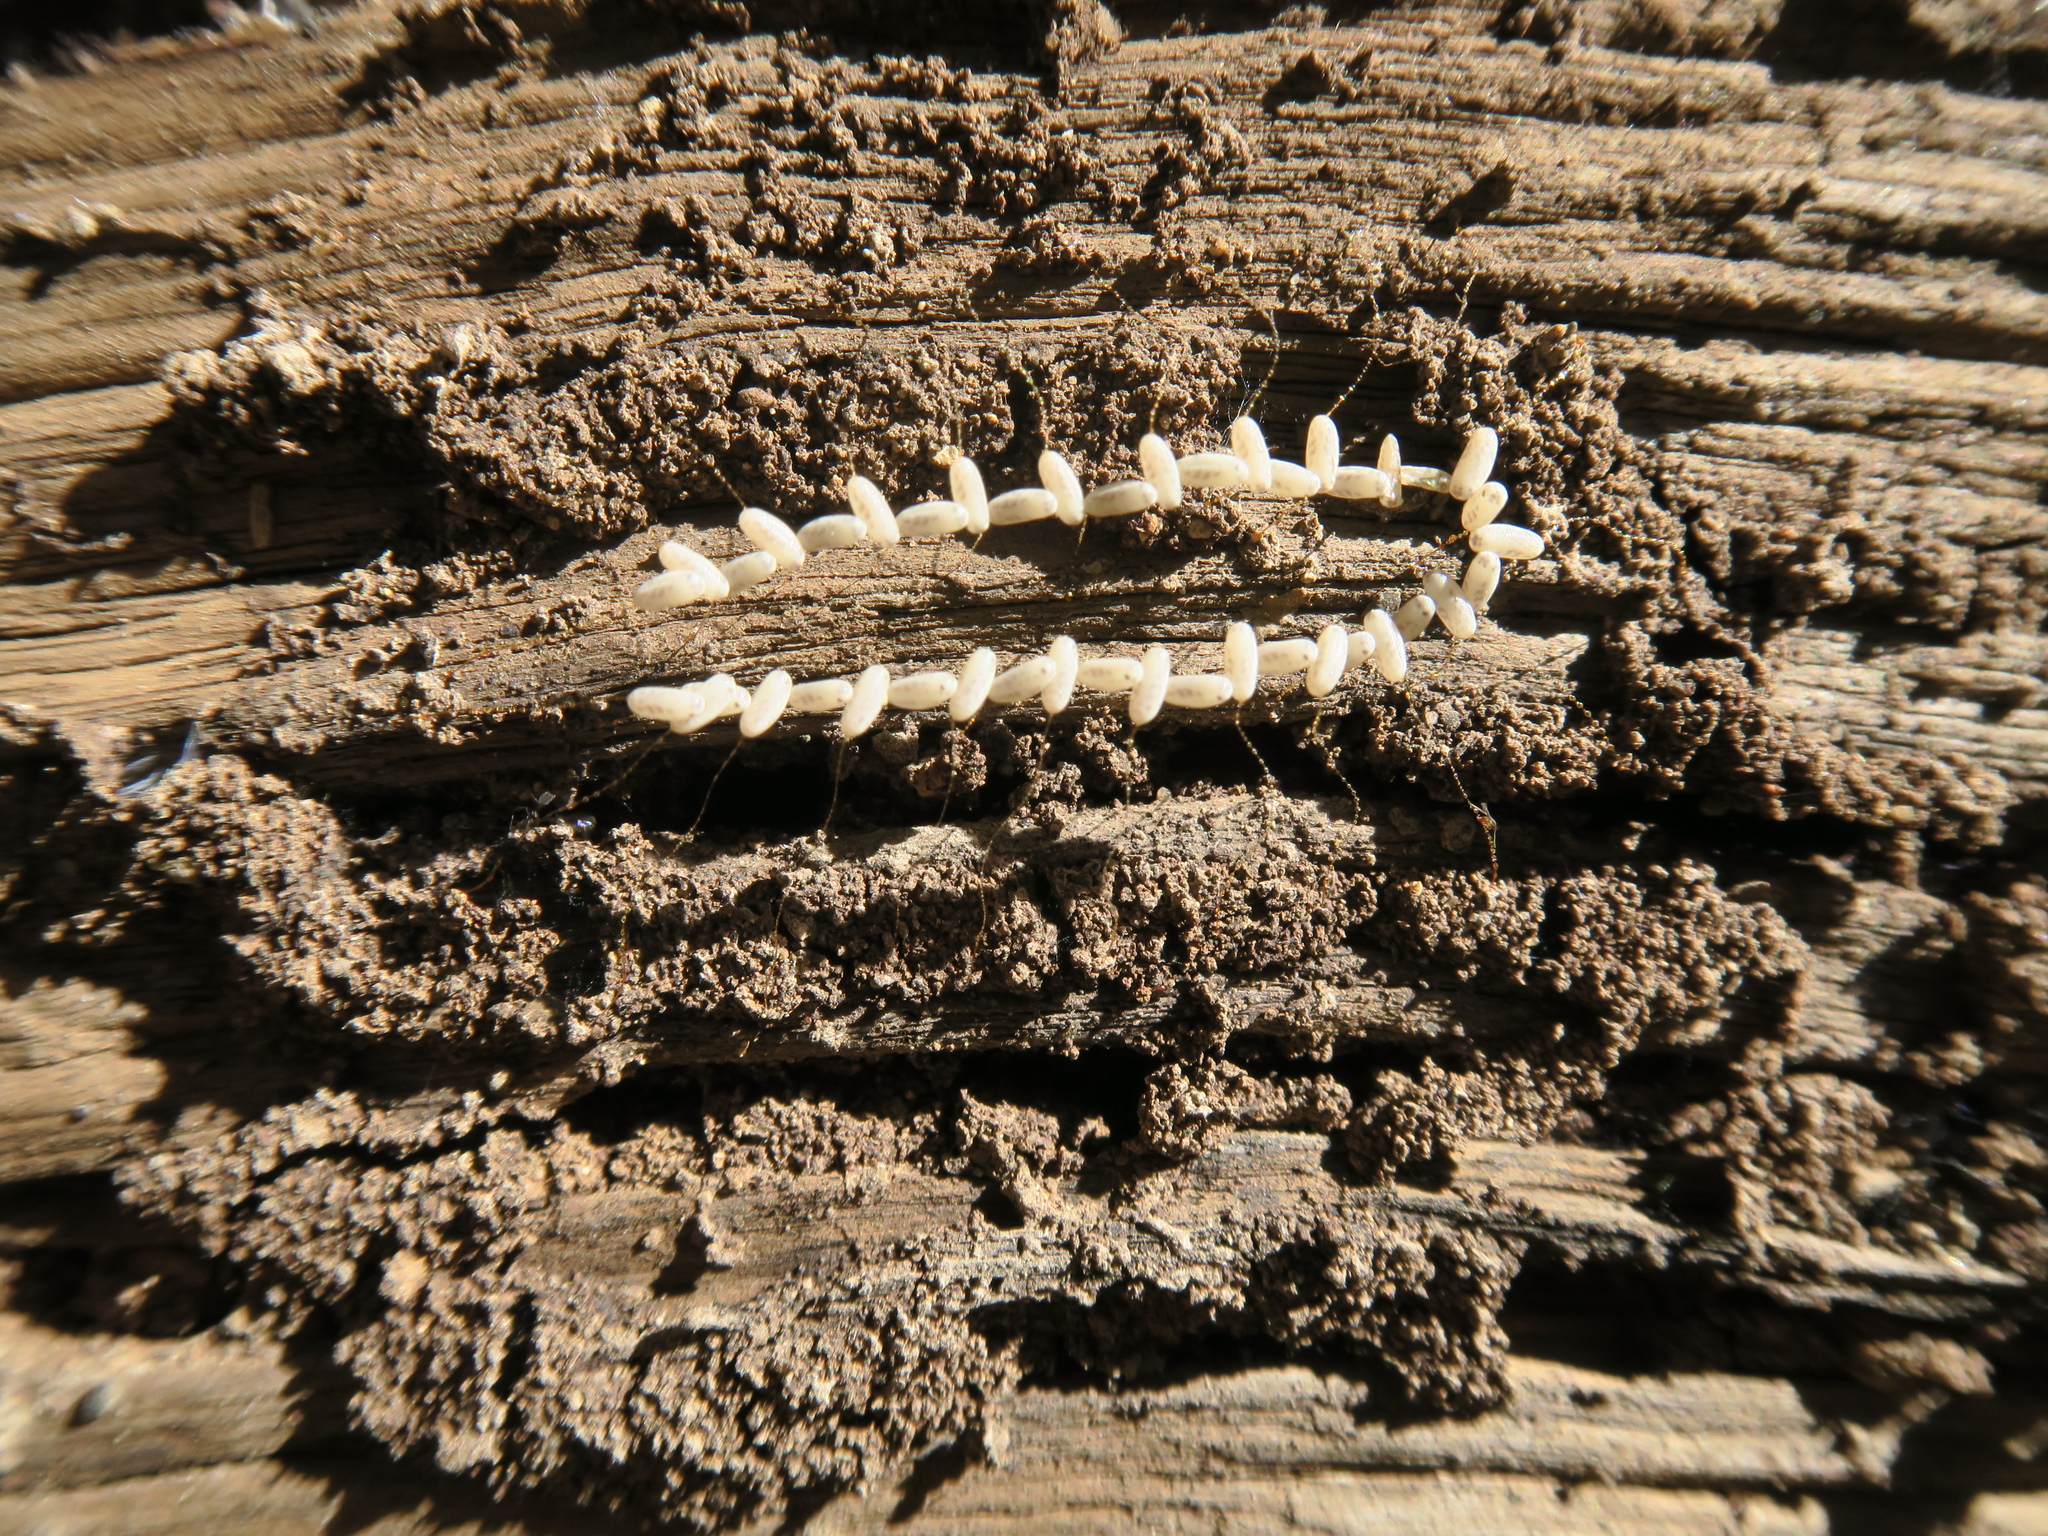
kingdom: Animalia
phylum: Arthropoda
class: Insecta
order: Neuroptera
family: Nymphidae
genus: Nymphes
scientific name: Nymphes myrmeleonoides
